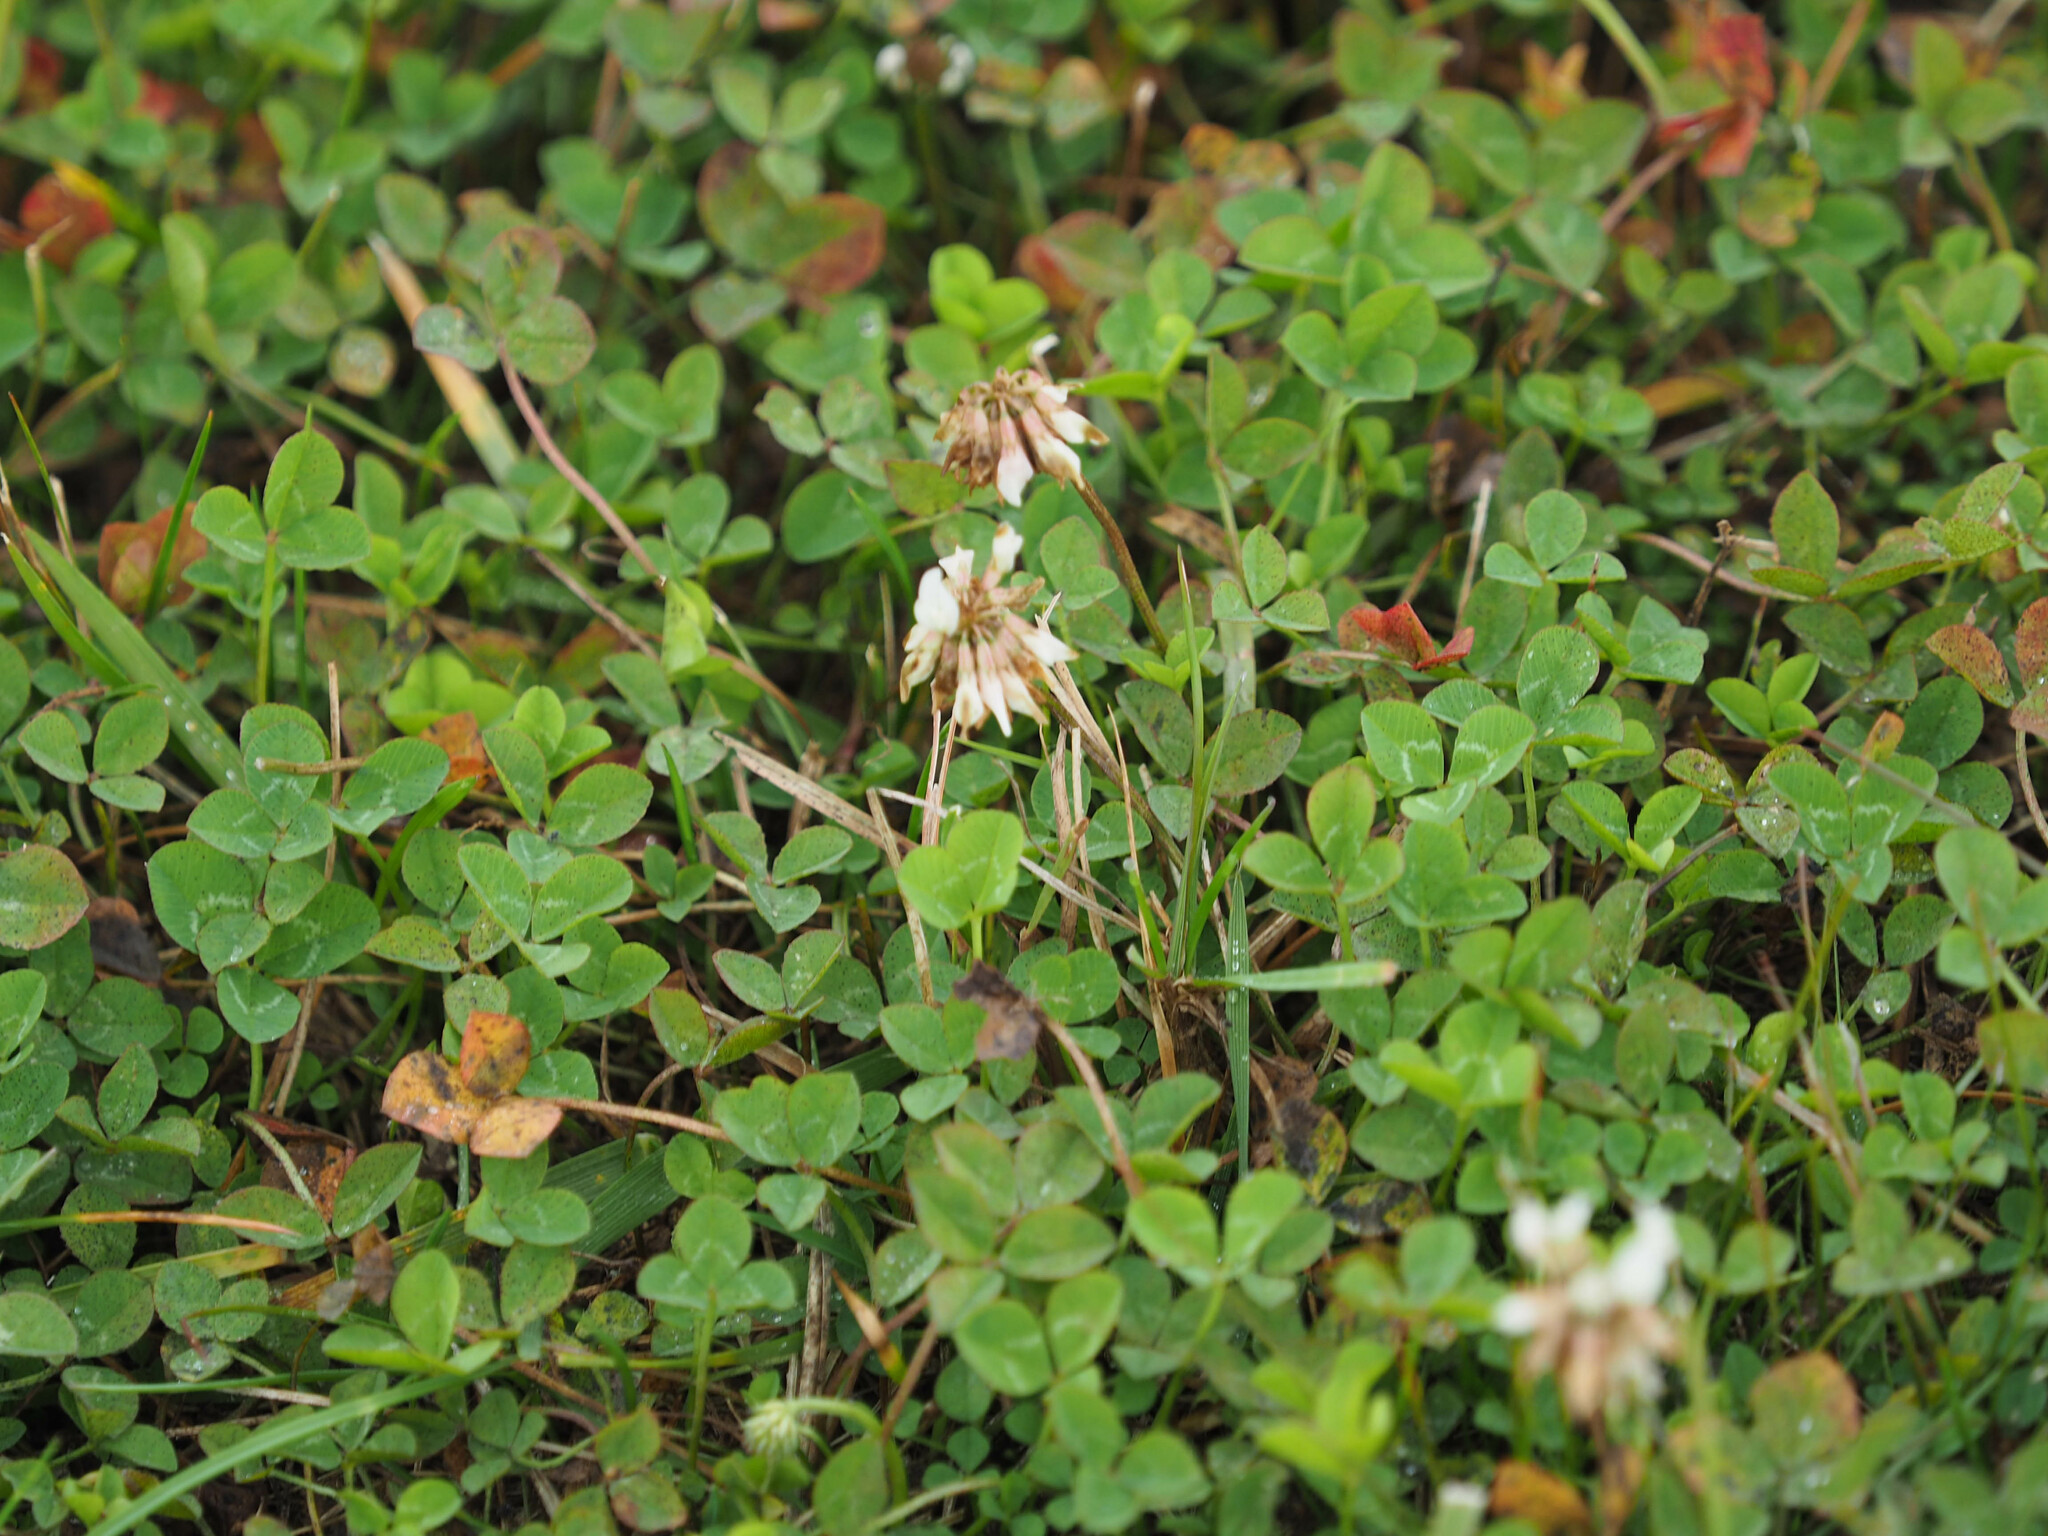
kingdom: Plantae
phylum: Tracheophyta
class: Magnoliopsida
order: Fabales
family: Fabaceae
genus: Trifolium
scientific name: Trifolium repens
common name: White clover
